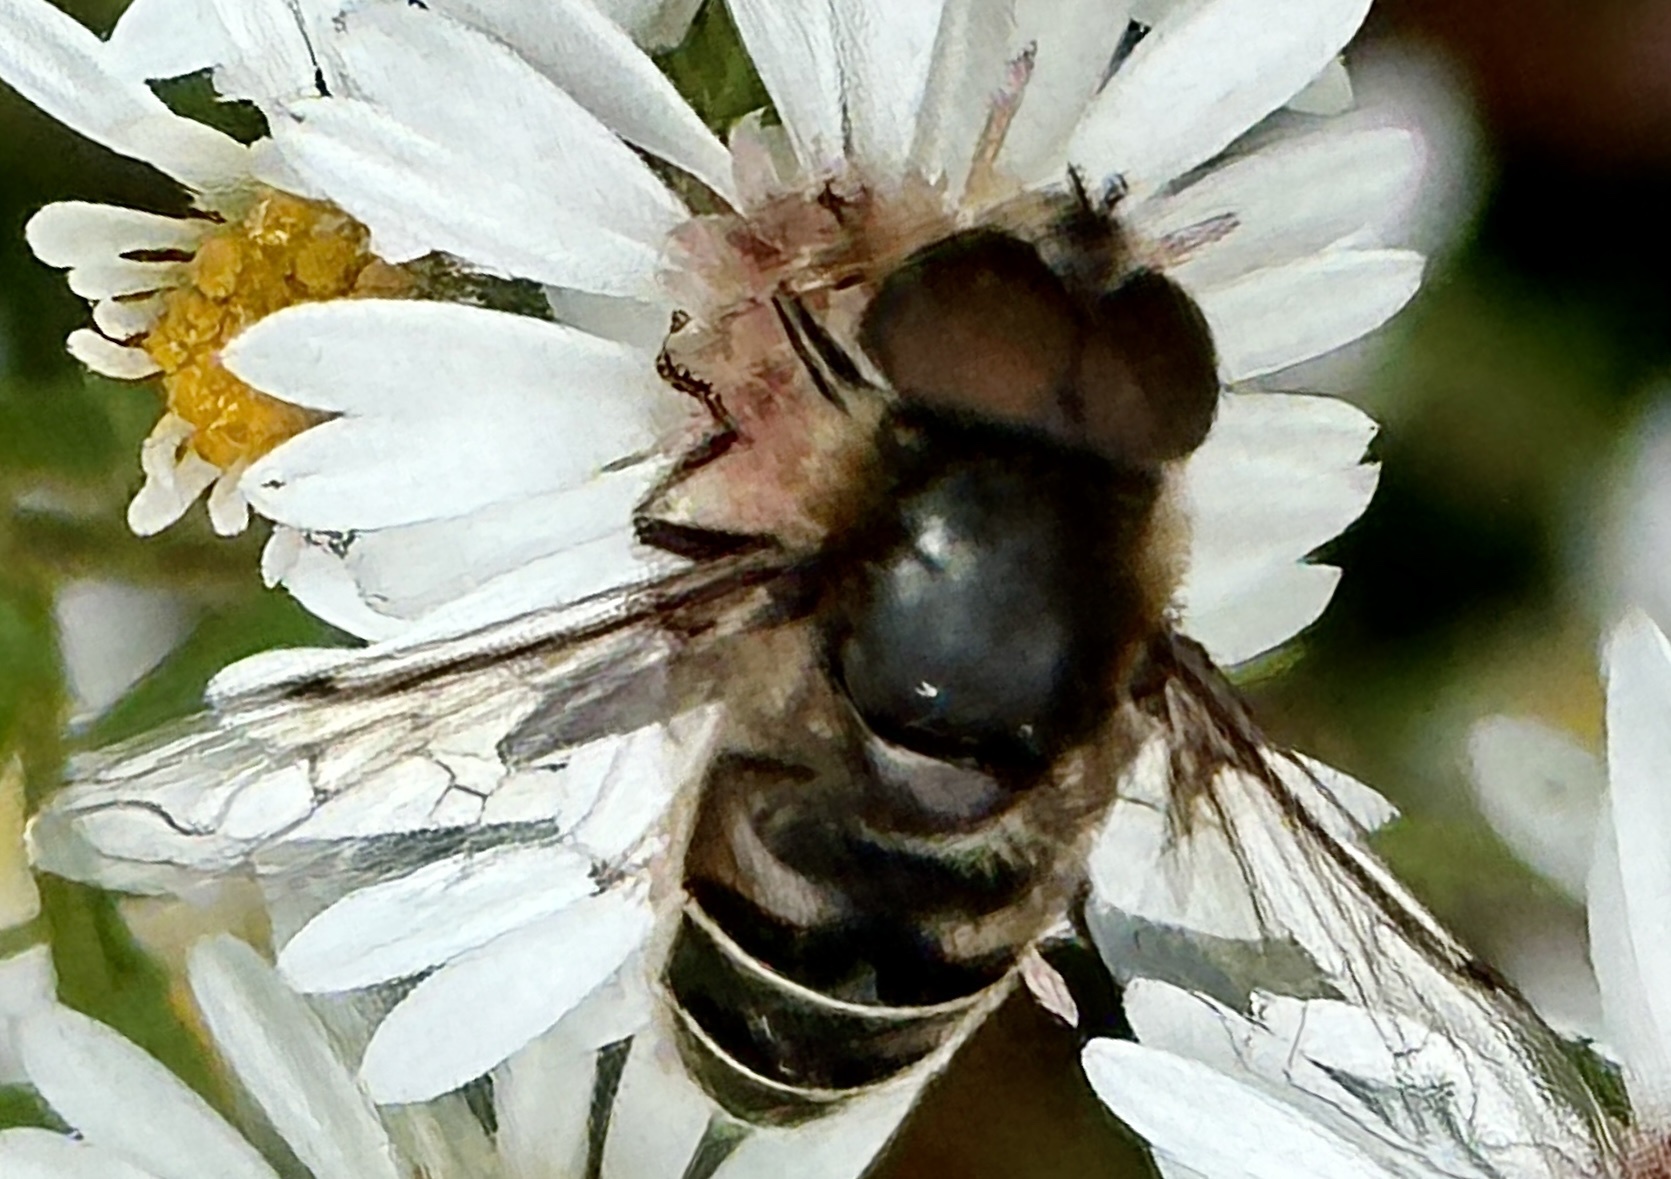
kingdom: Animalia
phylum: Arthropoda
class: Insecta
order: Diptera
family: Syrphidae
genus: Eristalis
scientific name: Eristalis dimidiata
